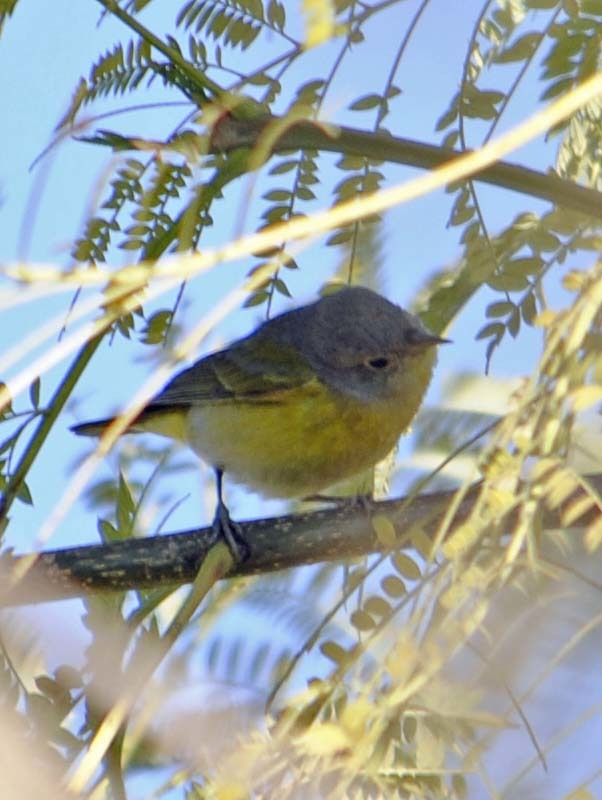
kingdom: Animalia
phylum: Chordata
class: Aves
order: Passeriformes
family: Parulidae
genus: Leiothlypis
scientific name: Leiothlypis ruficapilla
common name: Nashville warbler
